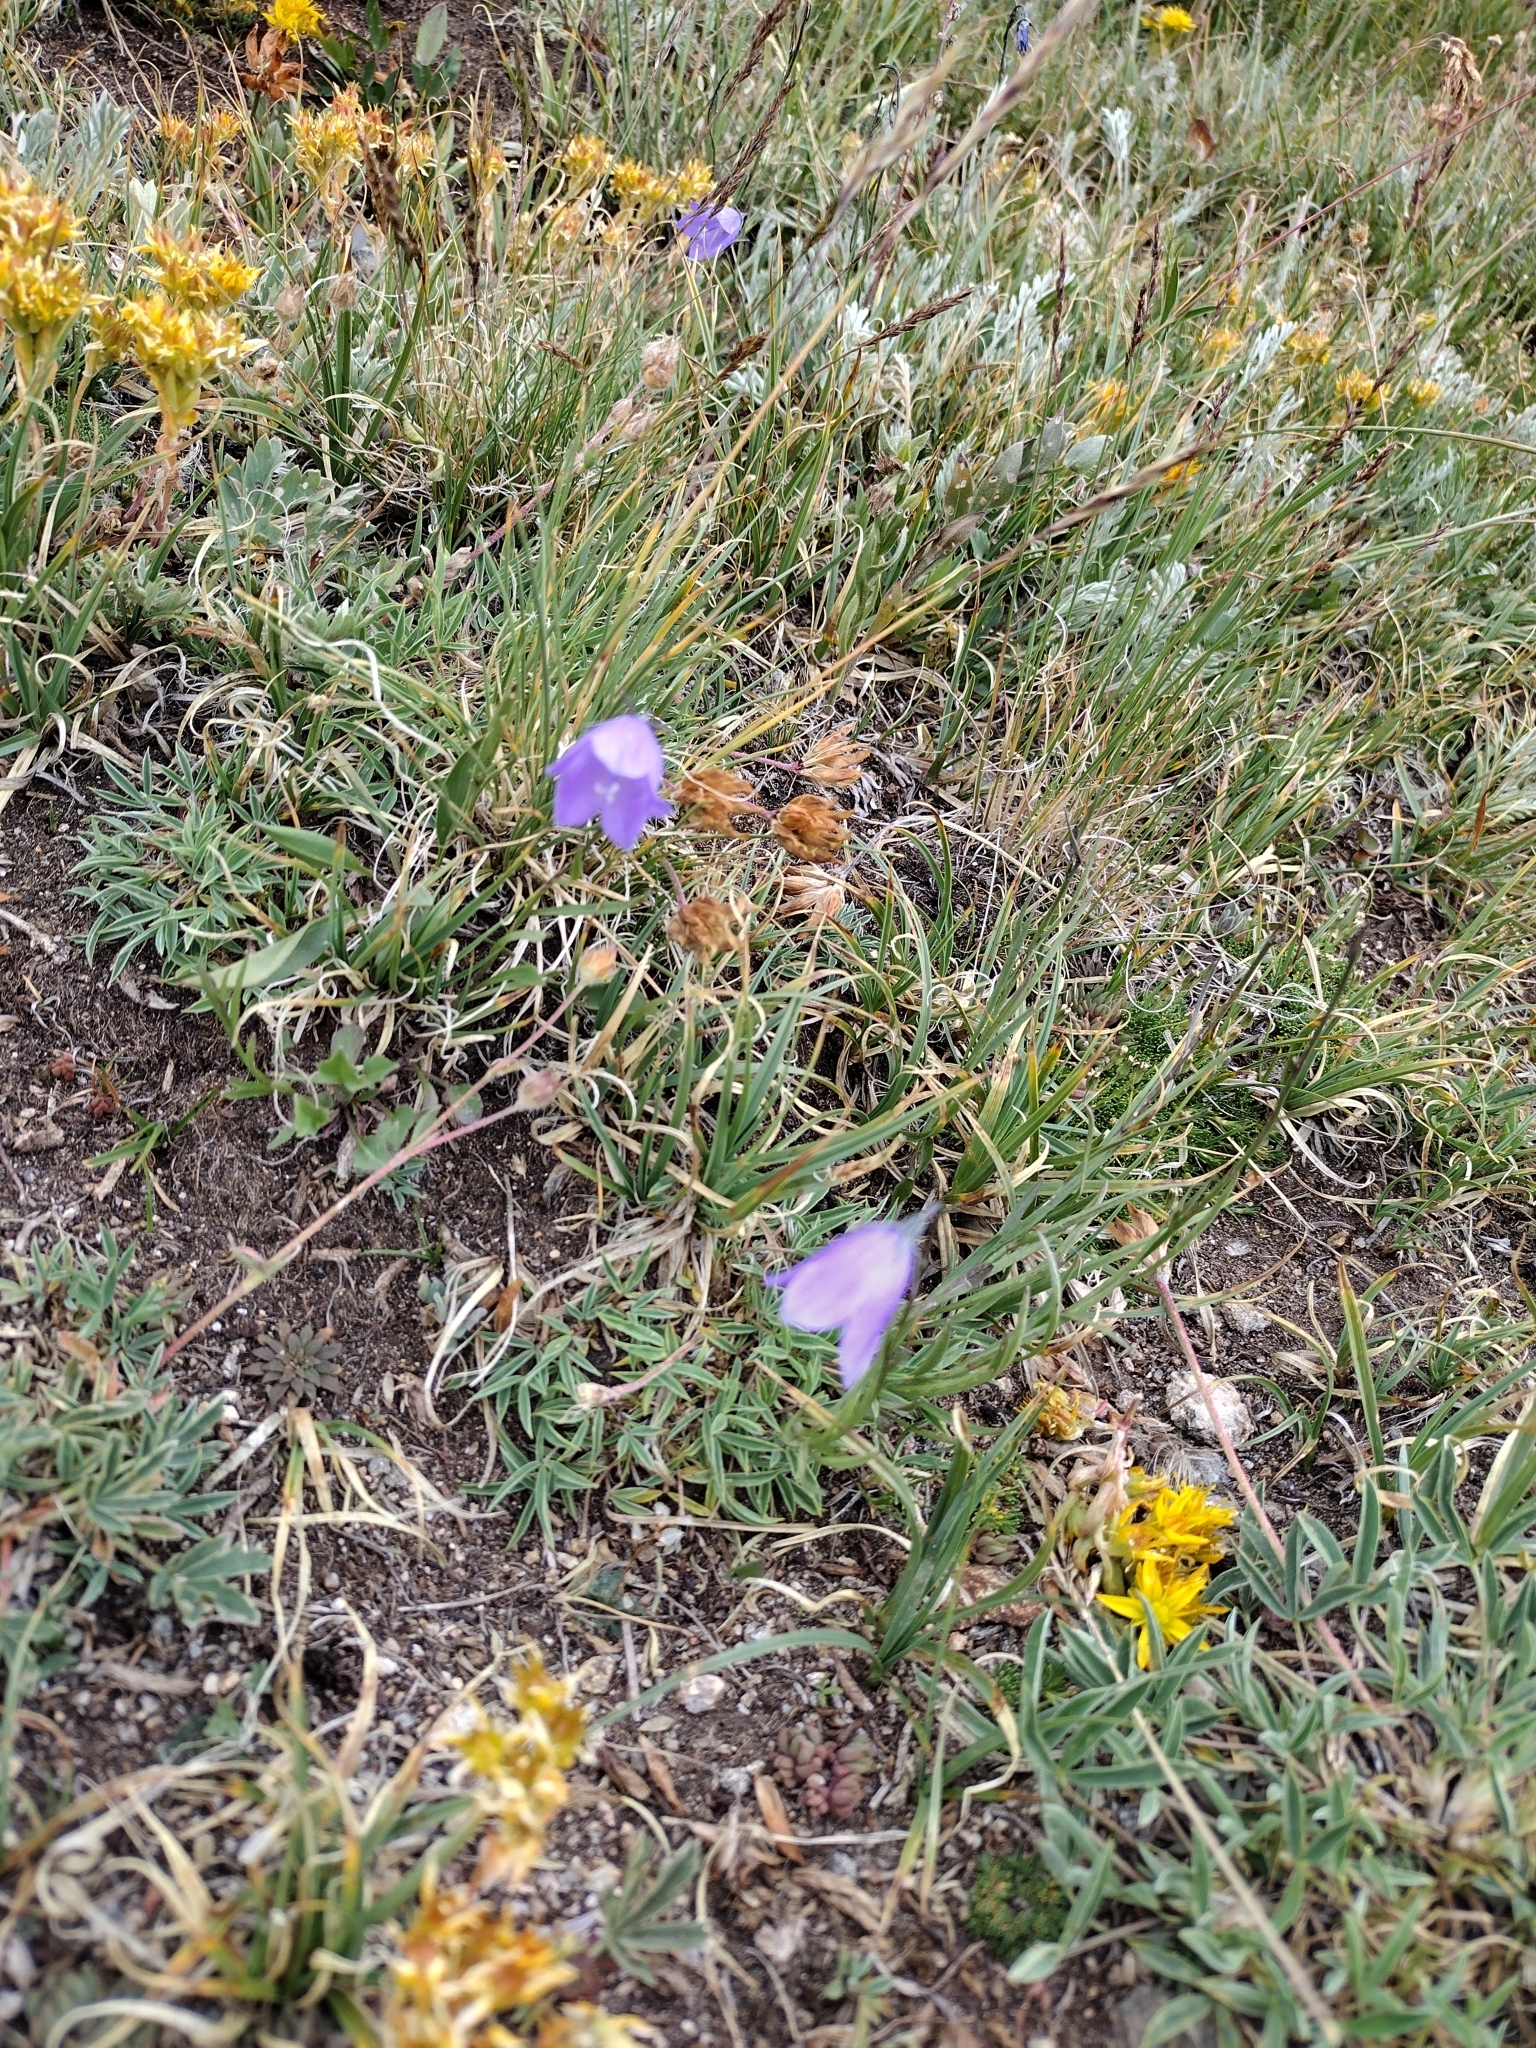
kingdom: Plantae
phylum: Tracheophyta
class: Magnoliopsida
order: Asterales
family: Campanulaceae
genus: Campanula
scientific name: Campanula petiolata
